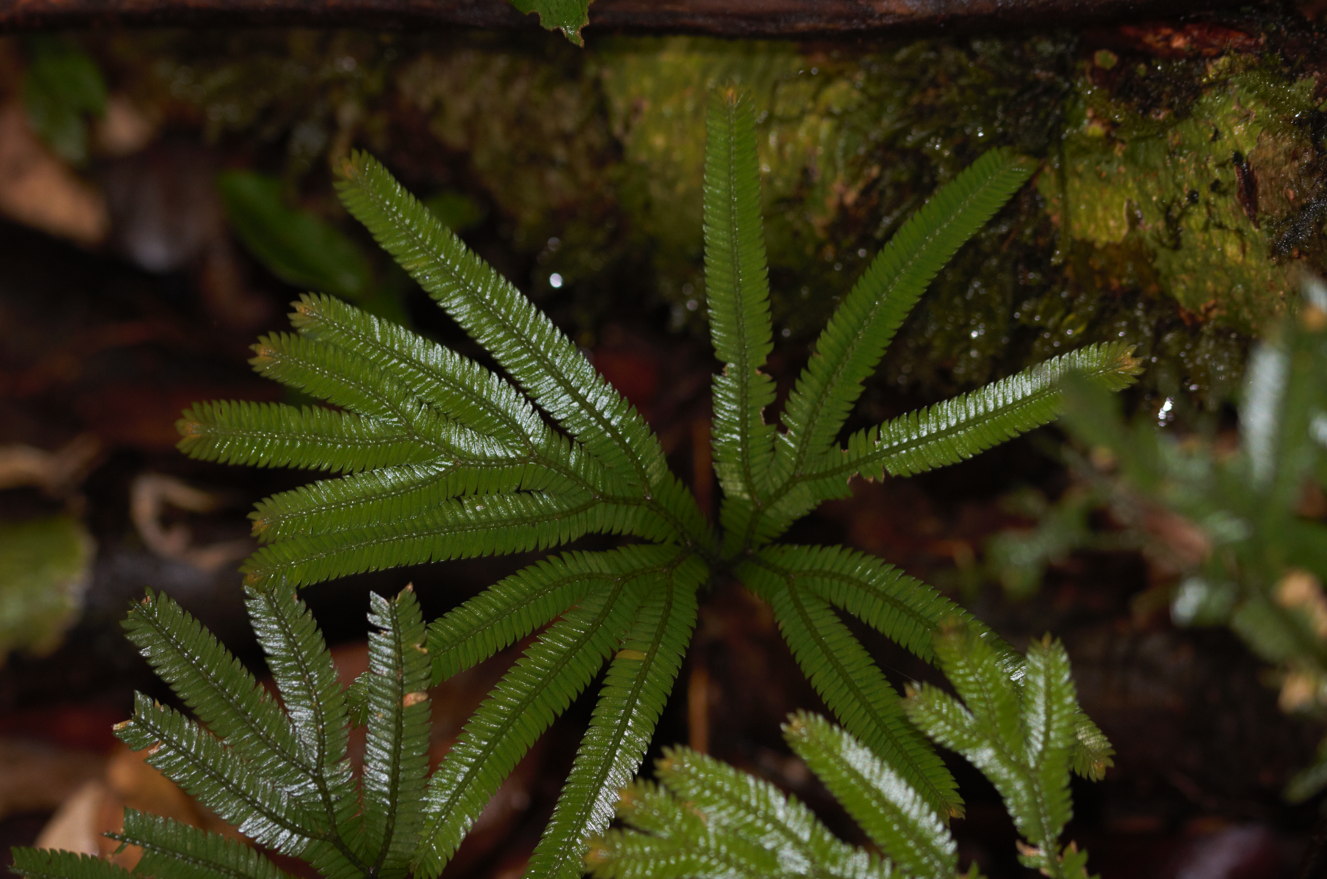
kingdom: Plantae
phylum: Tracheophyta
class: Lycopodiopsida
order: Selaginellales
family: Selaginellaceae
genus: Selaginella
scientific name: Selaginella parkeri
